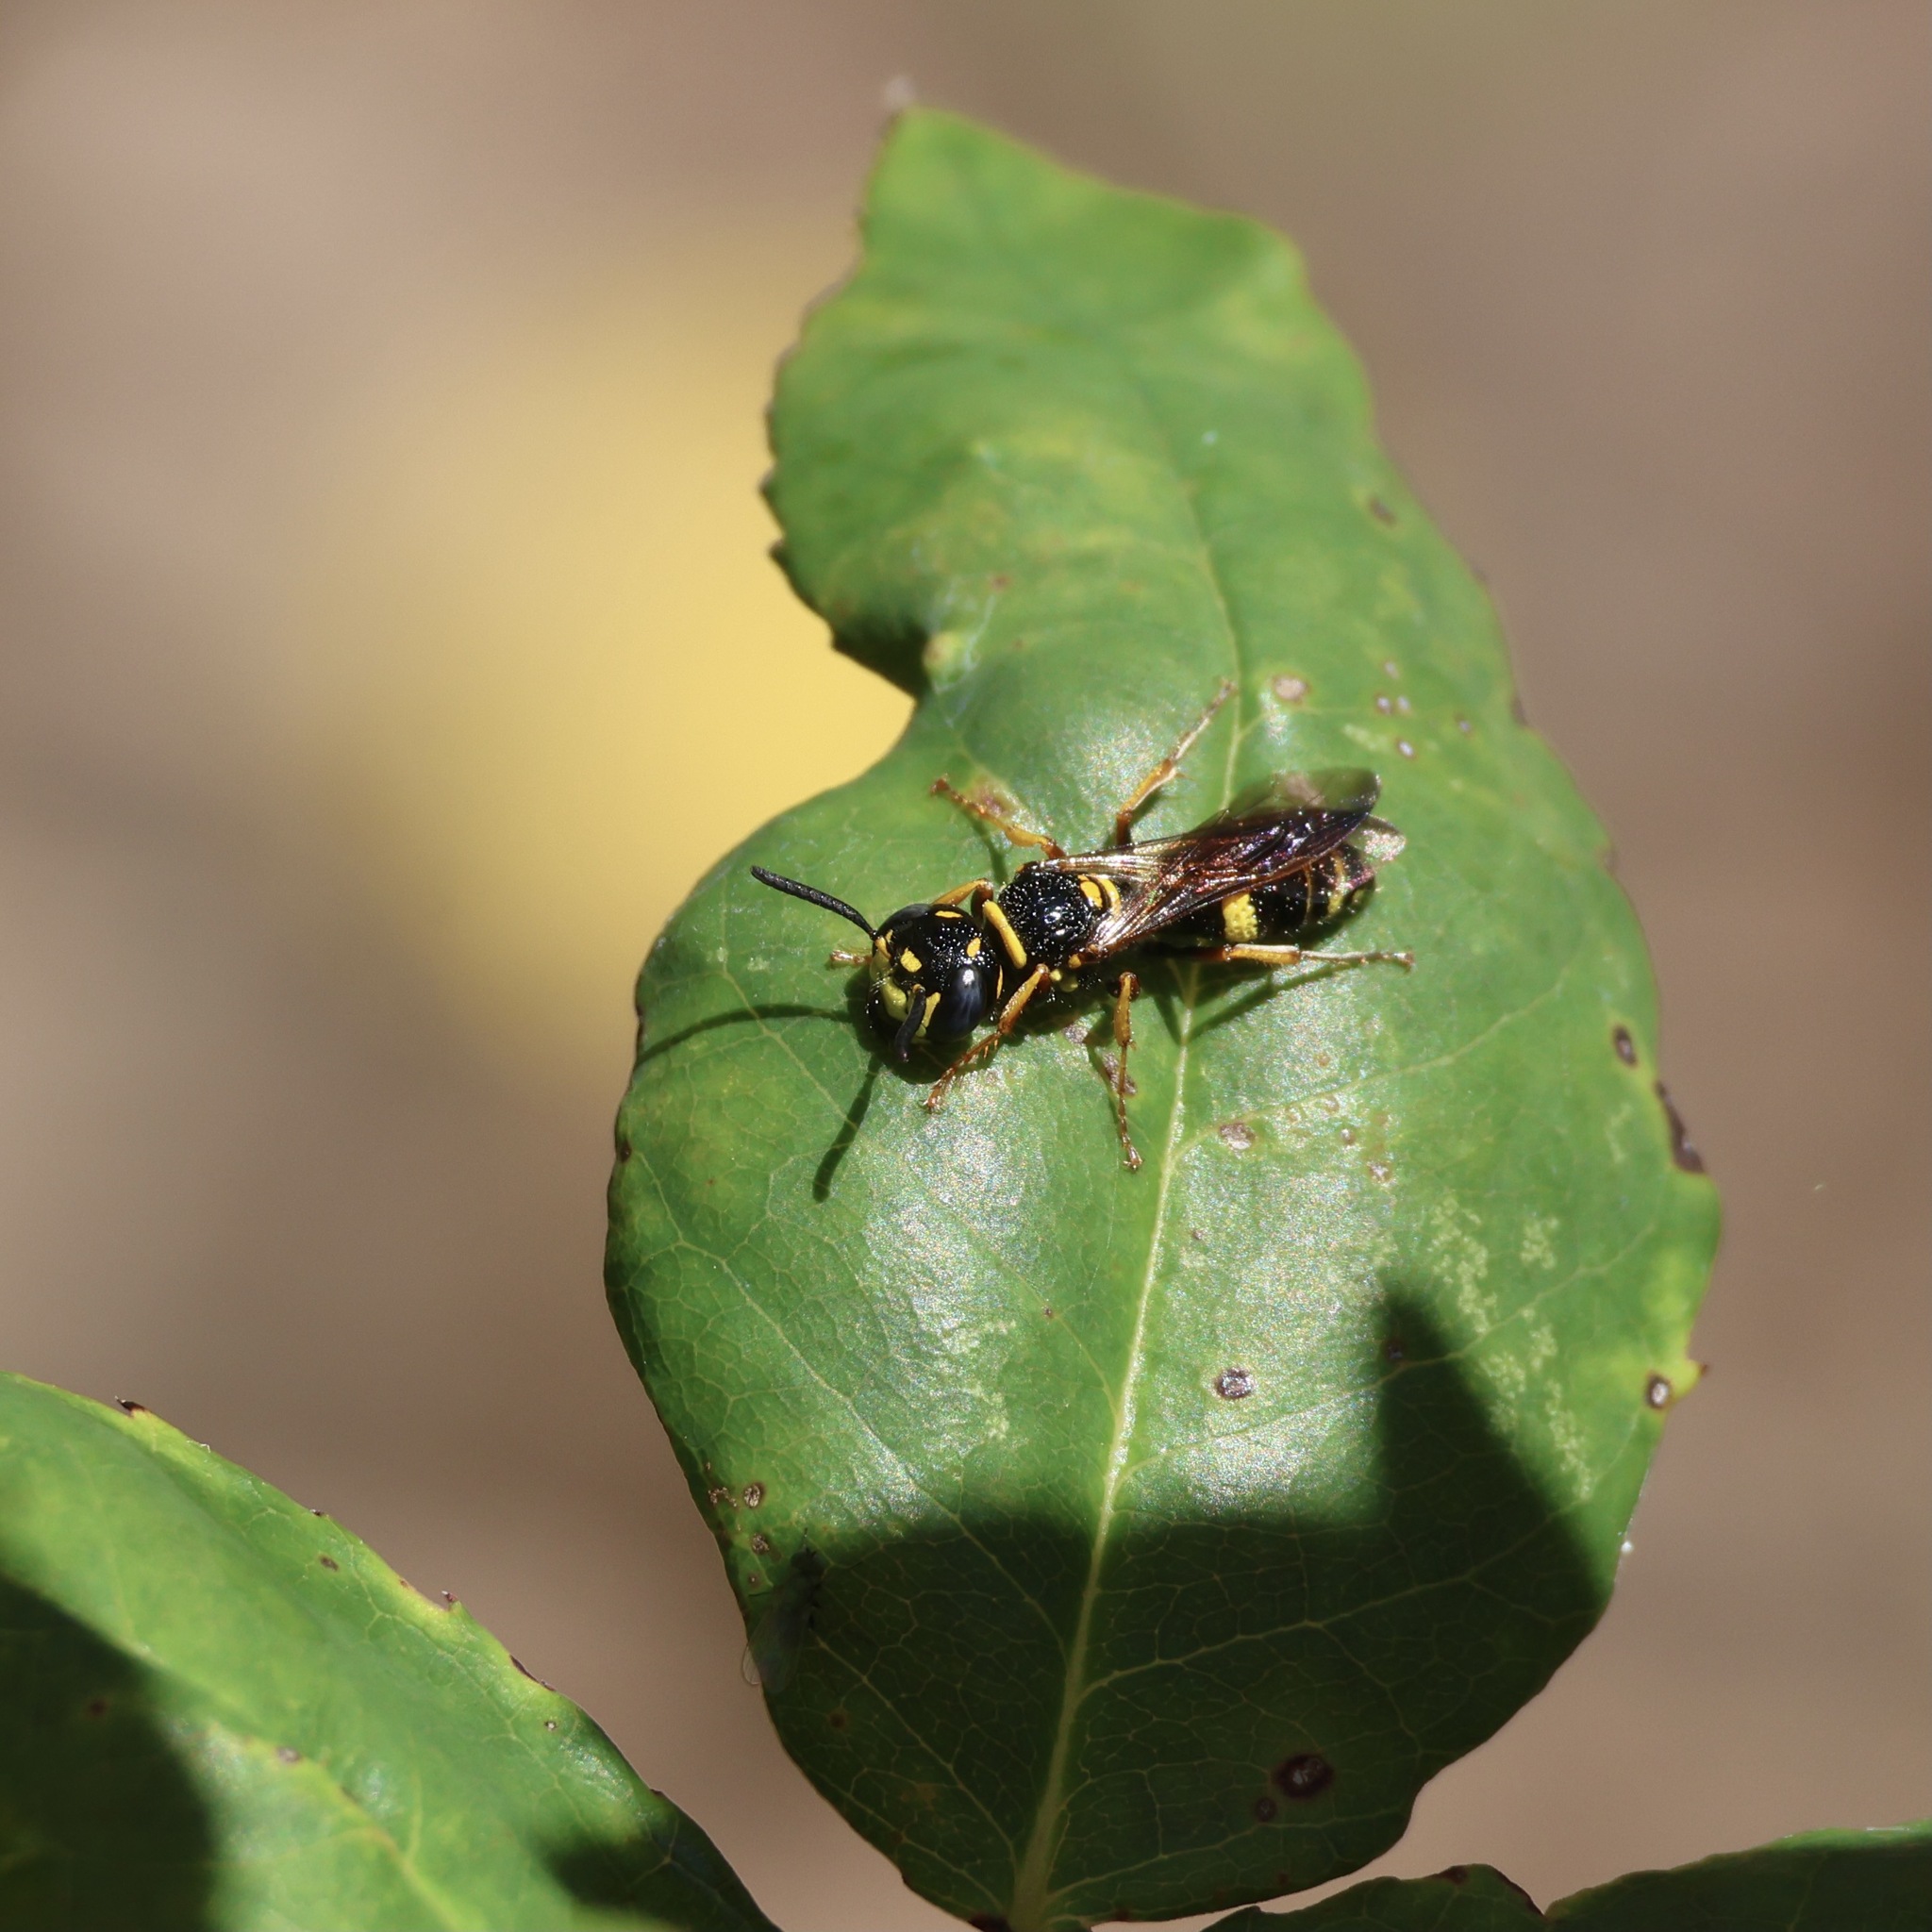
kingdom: Animalia
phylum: Arthropoda
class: Insecta
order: Hymenoptera
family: Crabronidae
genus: Philanthus
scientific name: Philanthus gibbosus
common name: Humped beewolf
